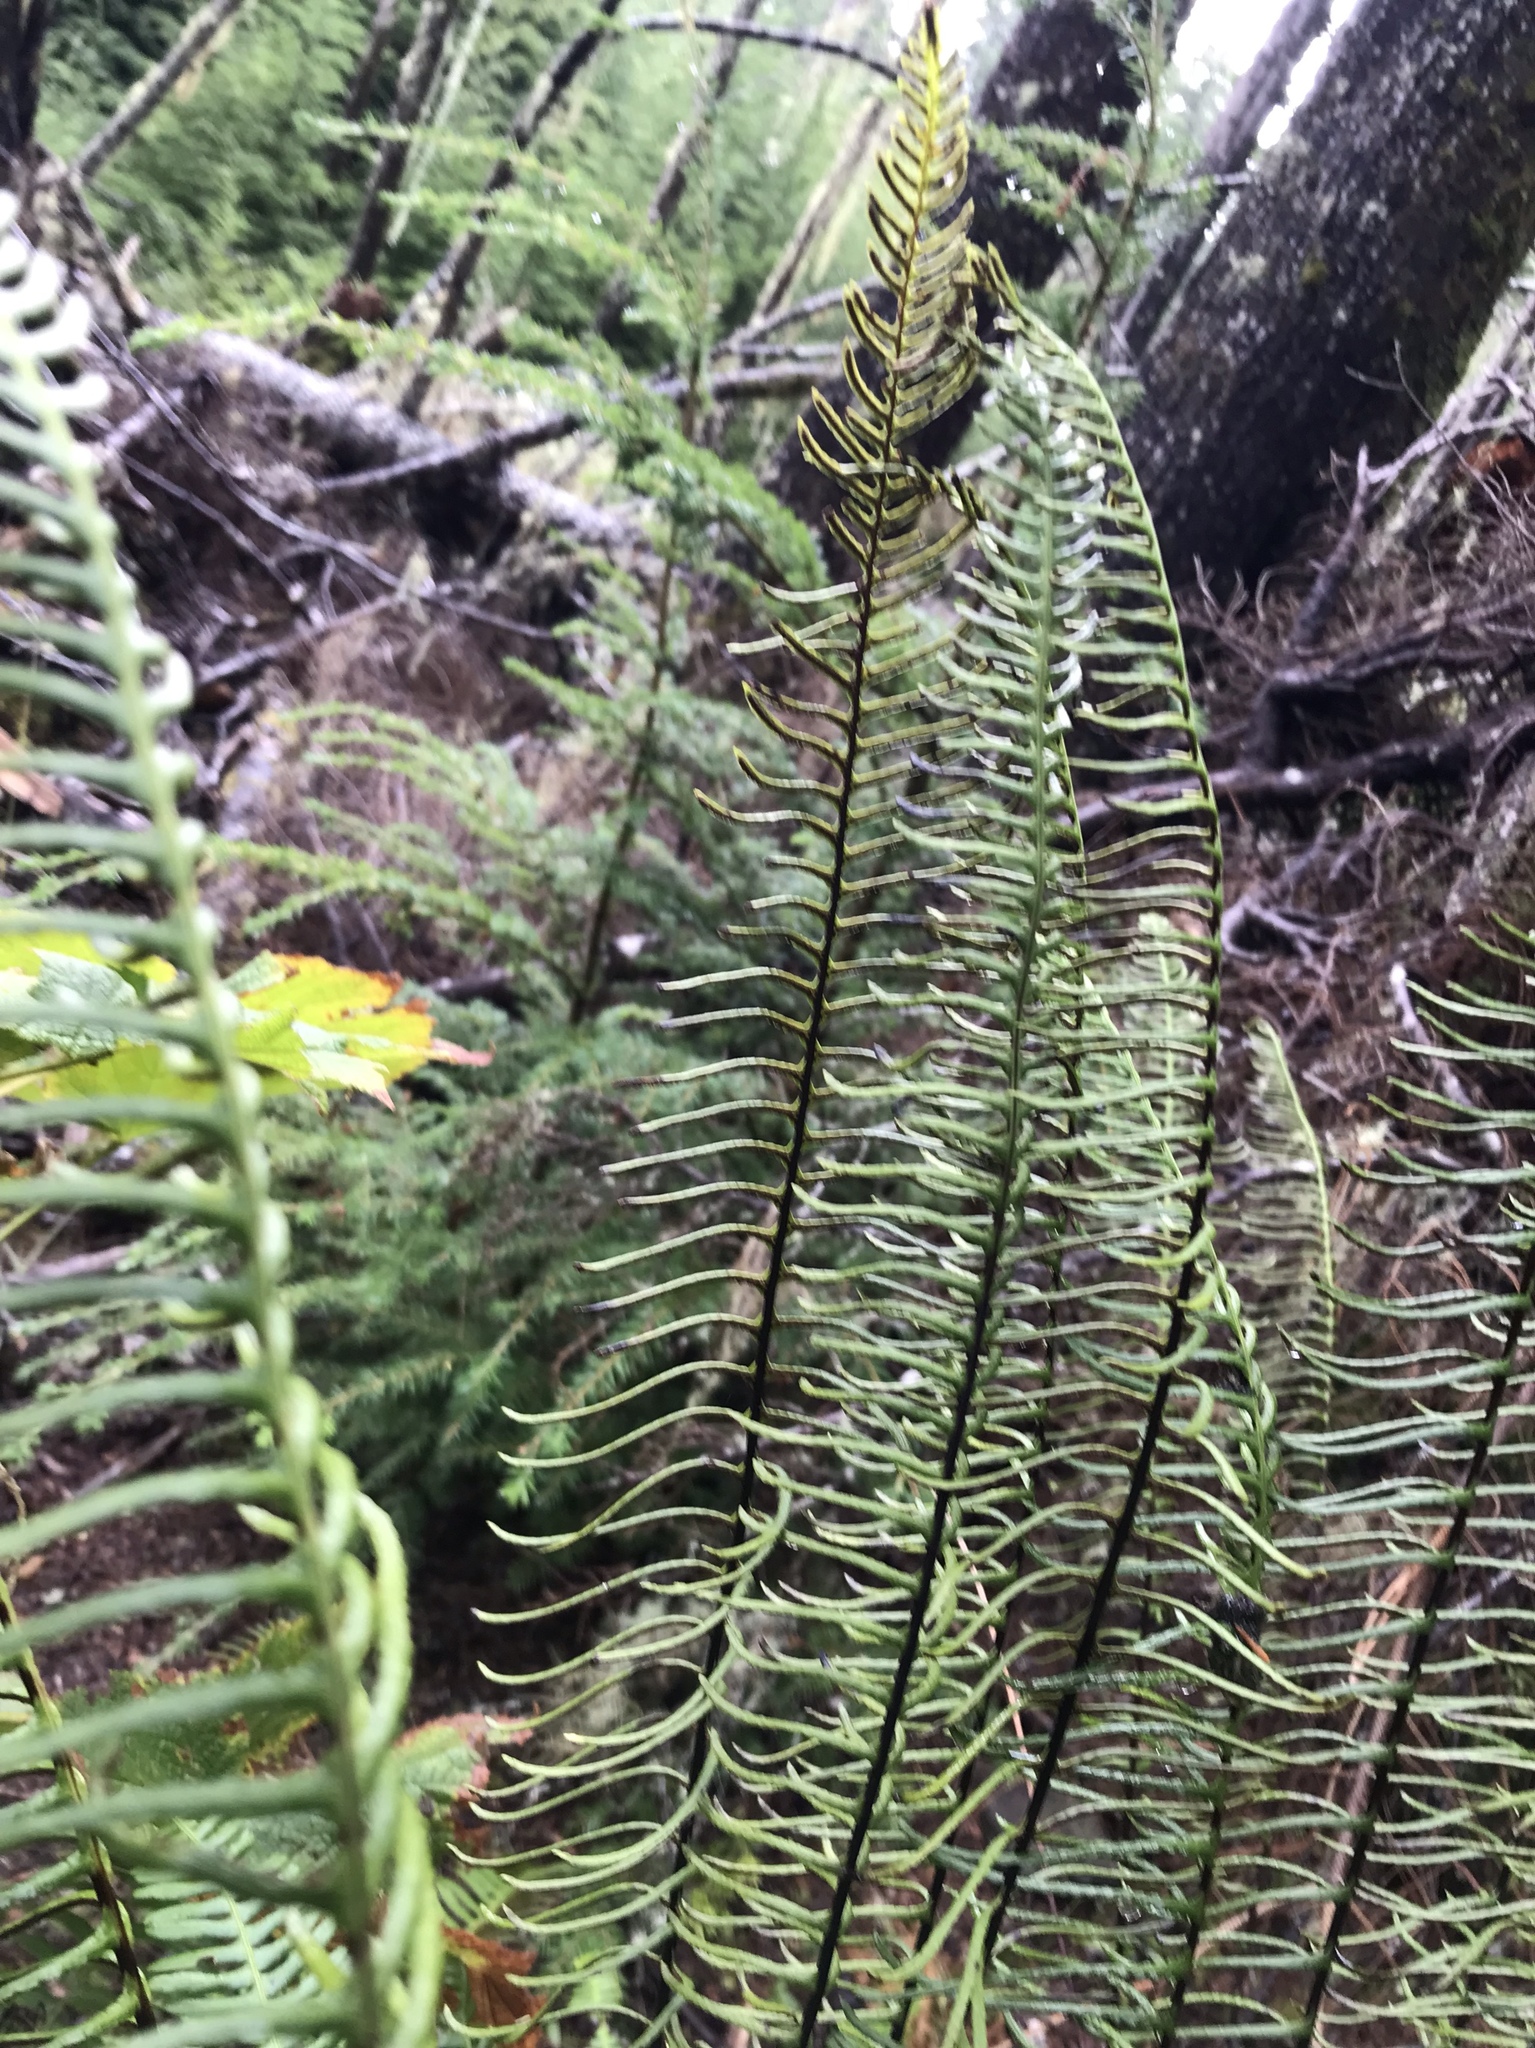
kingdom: Plantae
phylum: Tracheophyta
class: Polypodiopsida
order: Polypodiales
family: Blechnaceae
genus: Struthiopteris
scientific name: Struthiopteris spicant
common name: Deer fern
